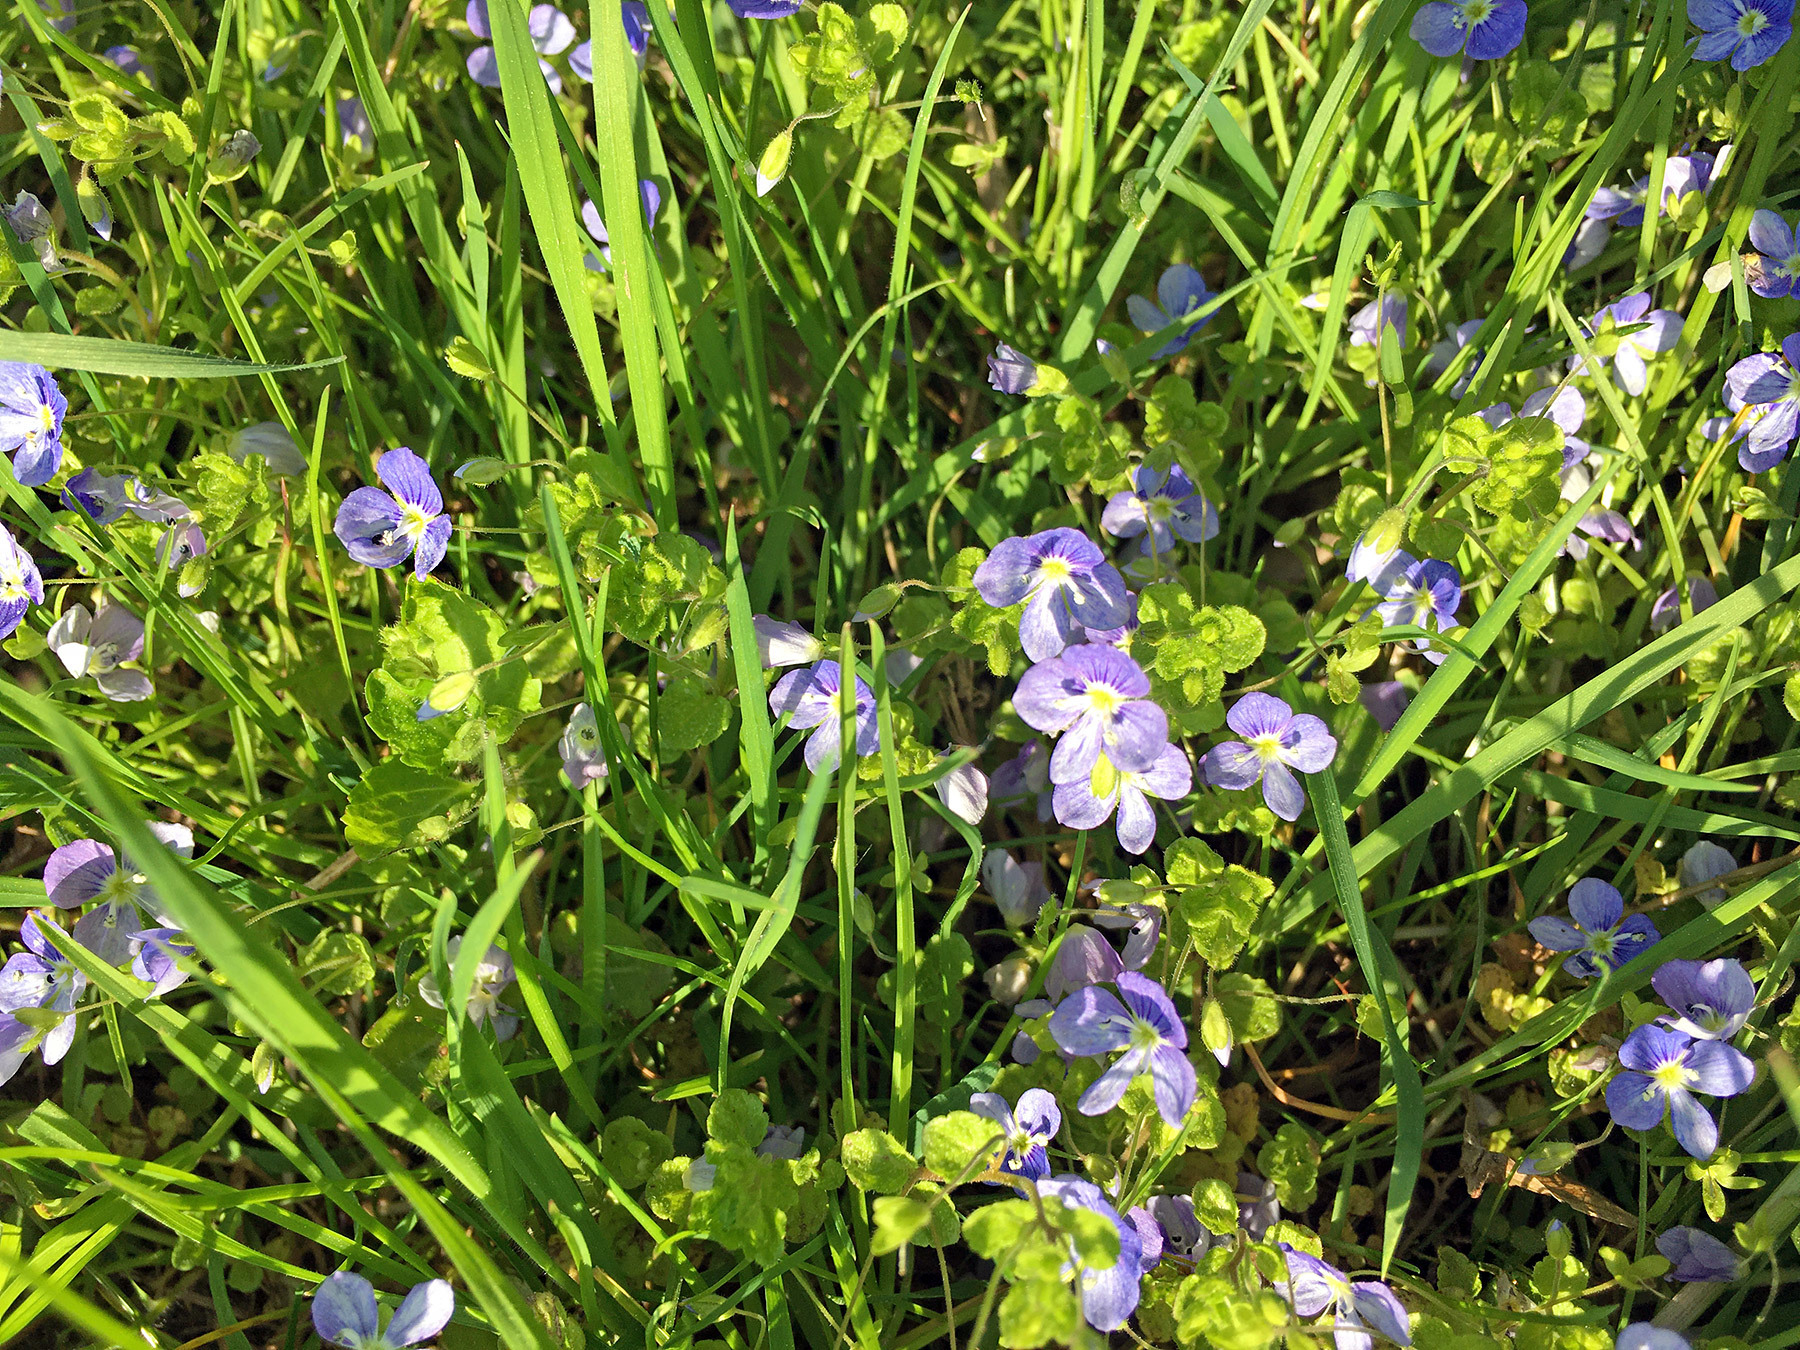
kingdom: Plantae
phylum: Tracheophyta
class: Magnoliopsida
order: Lamiales
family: Plantaginaceae
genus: Veronica
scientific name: Veronica filiformis
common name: Slender speedwell
